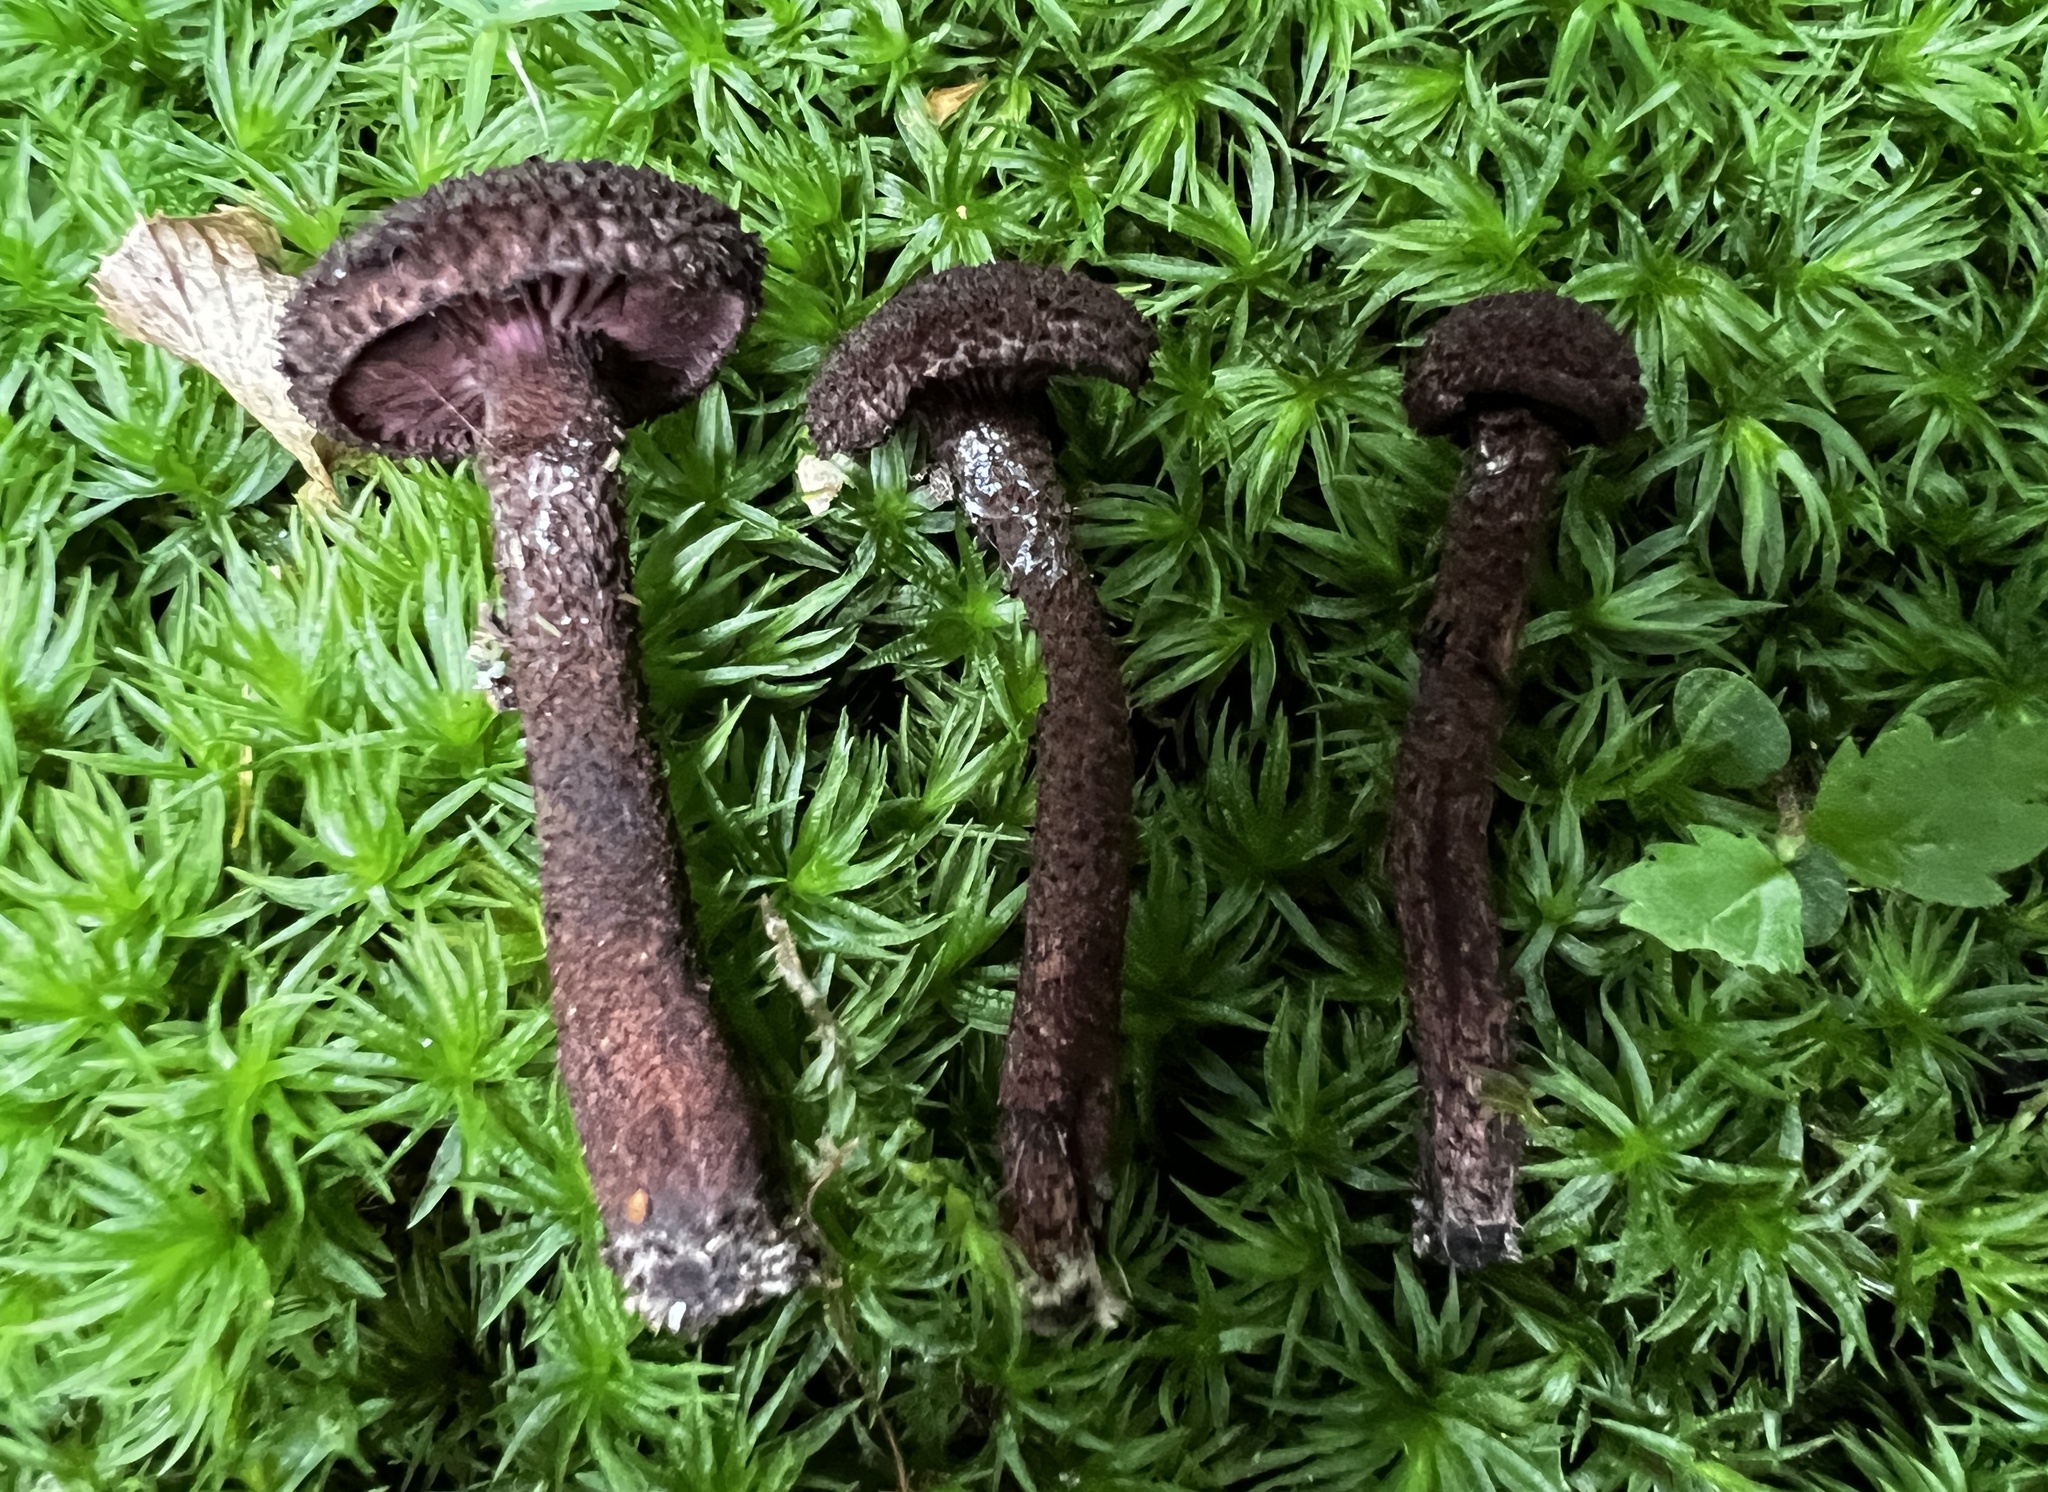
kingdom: Fungi
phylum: Basidiomycota
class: Agaricomycetes
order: Agaricales
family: Inocybaceae
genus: Inocybe
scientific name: Inocybe tahquamenonensis
